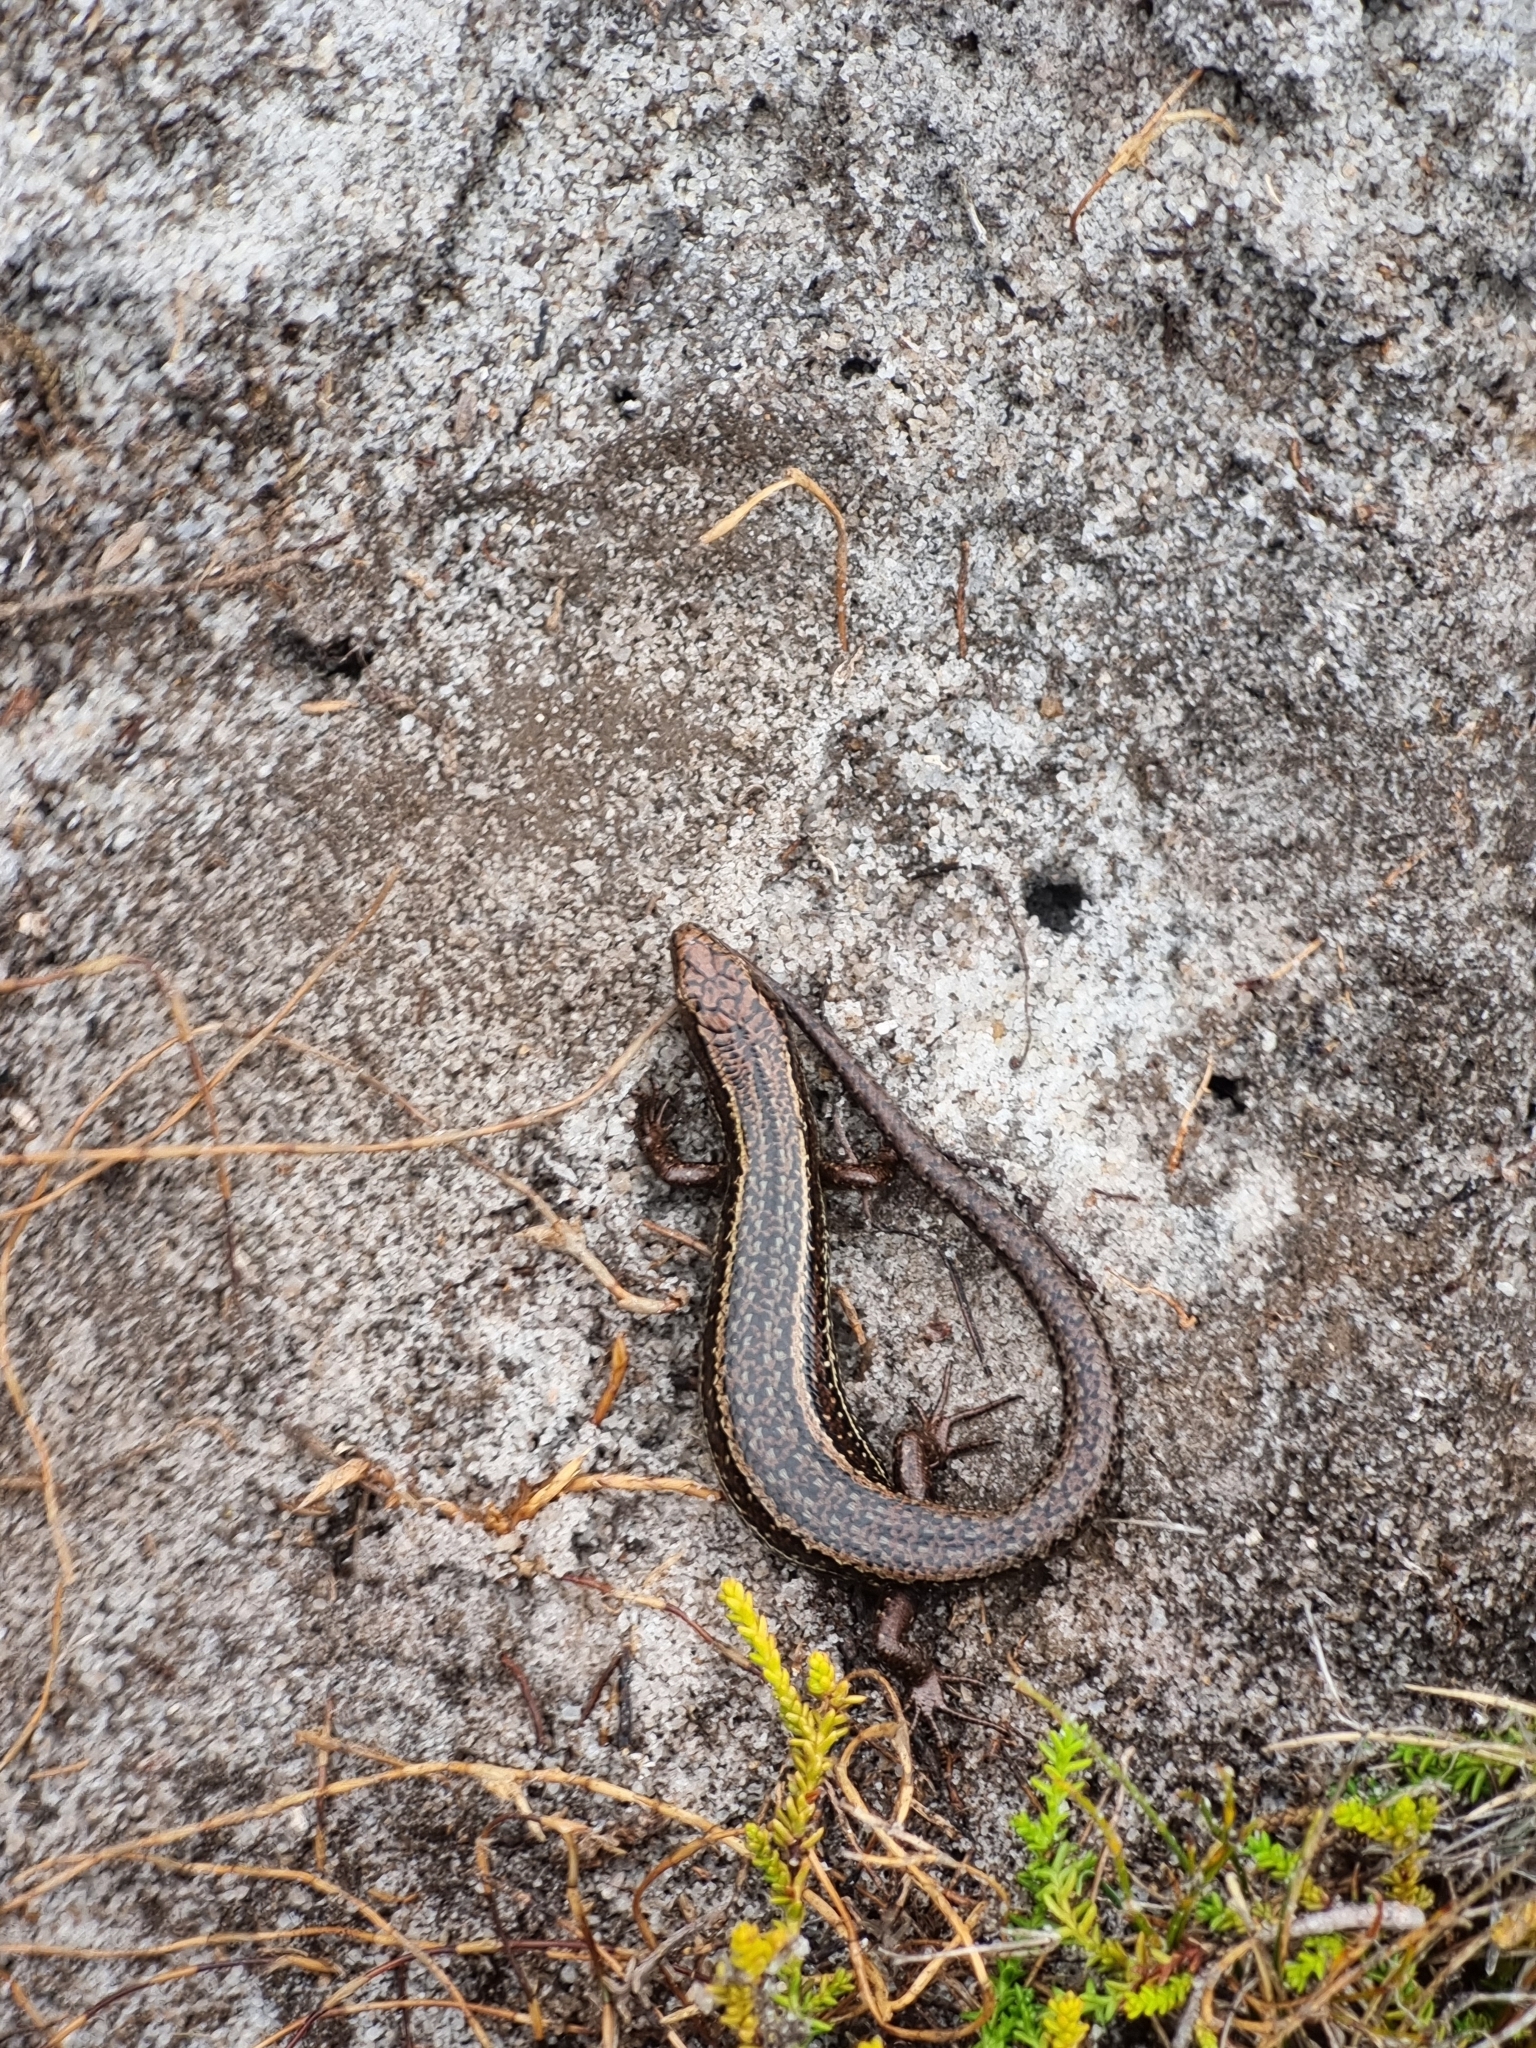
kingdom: Animalia
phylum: Chordata
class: Squamata
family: Scincidae
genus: Oligosoma
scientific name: Oligosoma newmani
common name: Newman’s speckled skink
